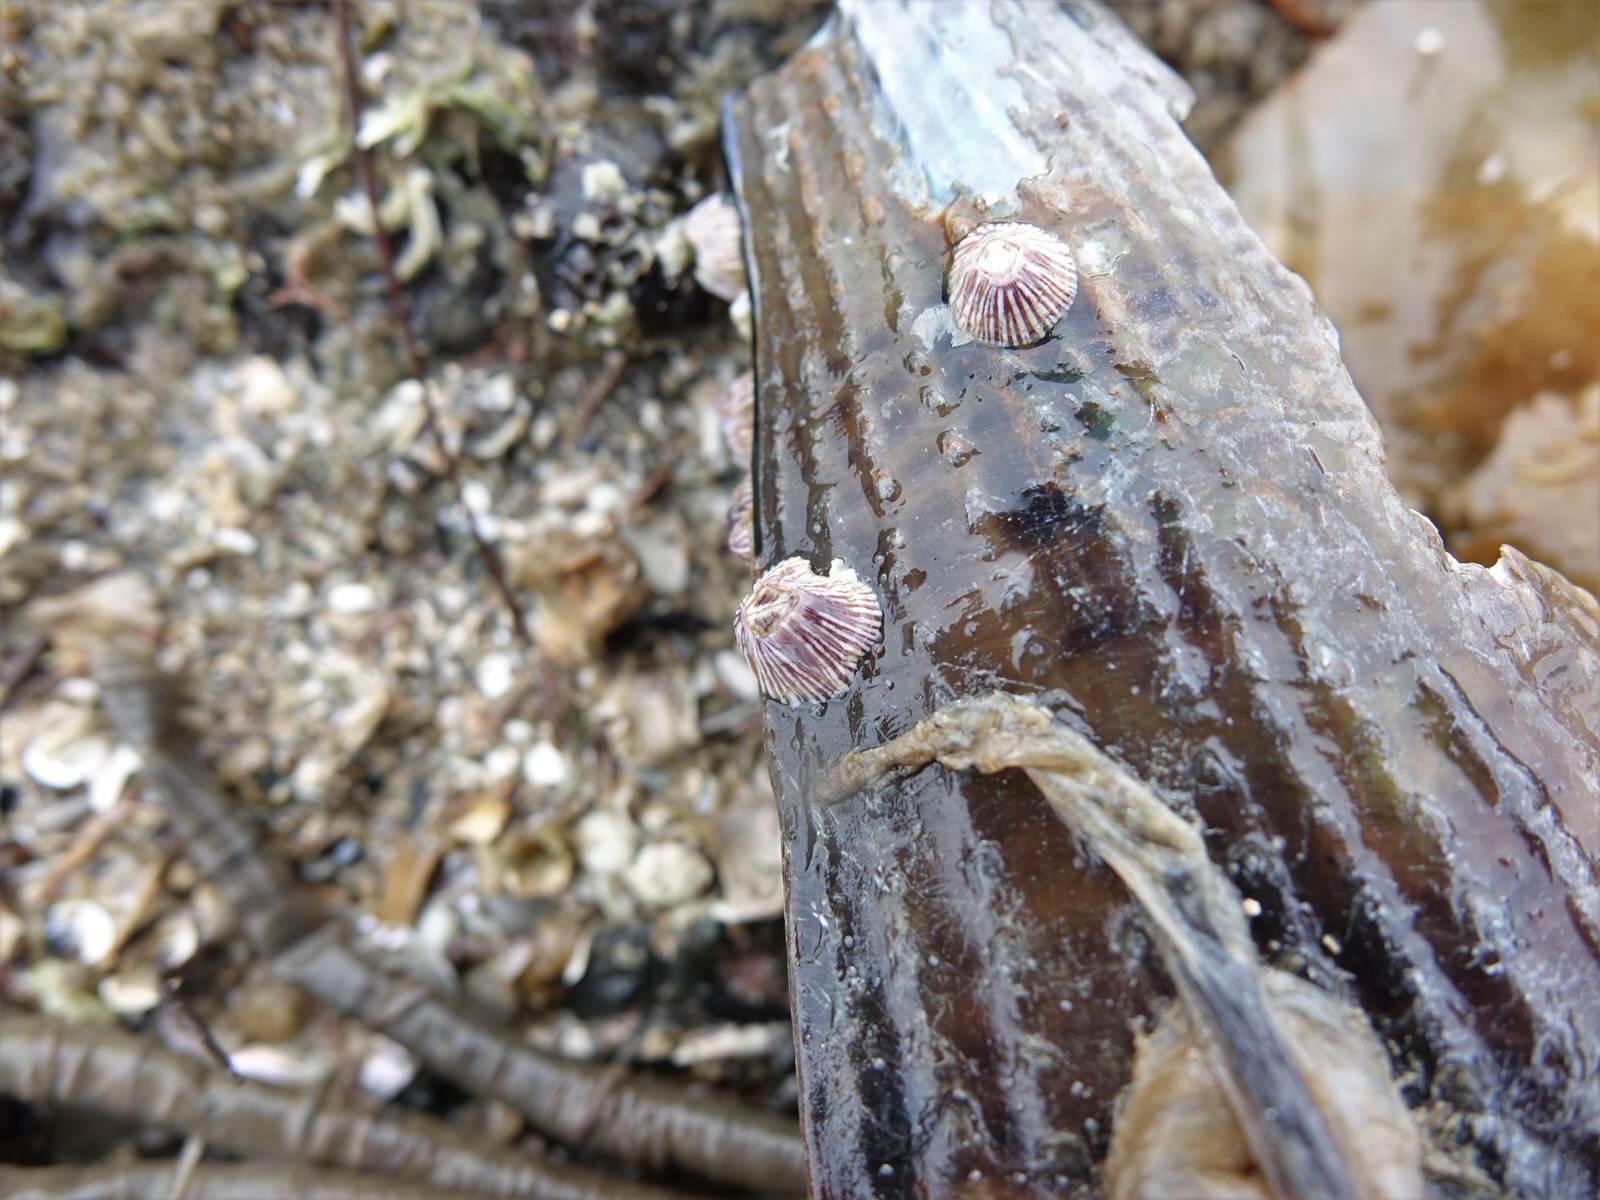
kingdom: Animalia
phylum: Arthropoda
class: Maxillopoda
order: Sessilia
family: Balanidae
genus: Balanus
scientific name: Balanus trigonus
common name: Triangle barnacle
